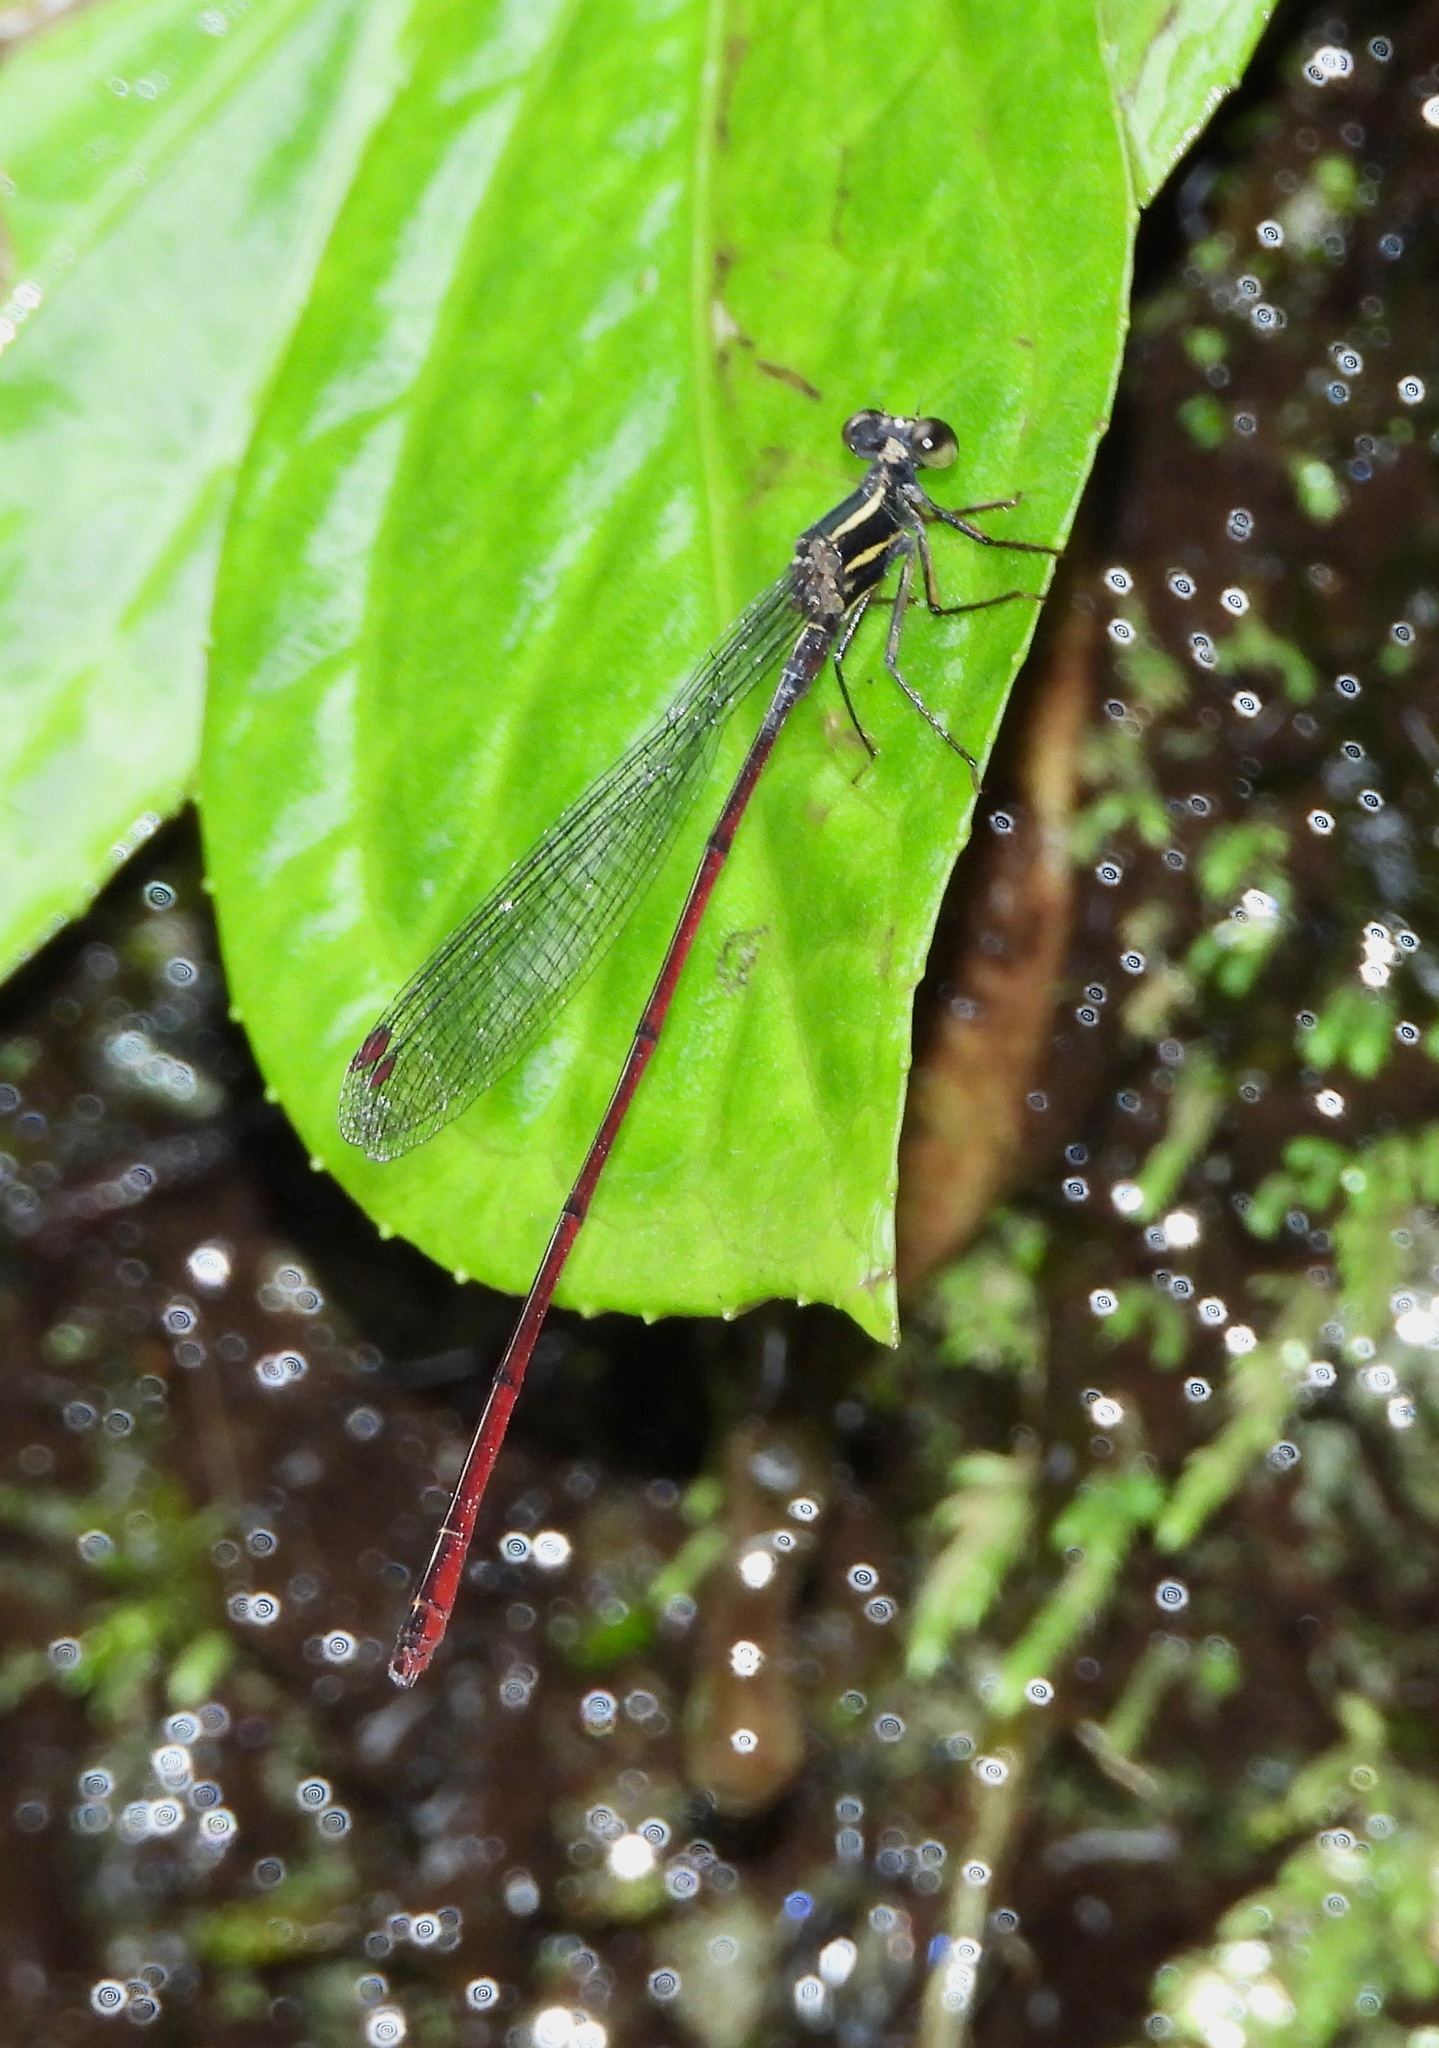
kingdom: Animalia
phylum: Arthropoda
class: Insecta
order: Odonata
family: Megapodagrionidae
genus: Mesagrion
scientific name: Mesagrion leucorrhinum
